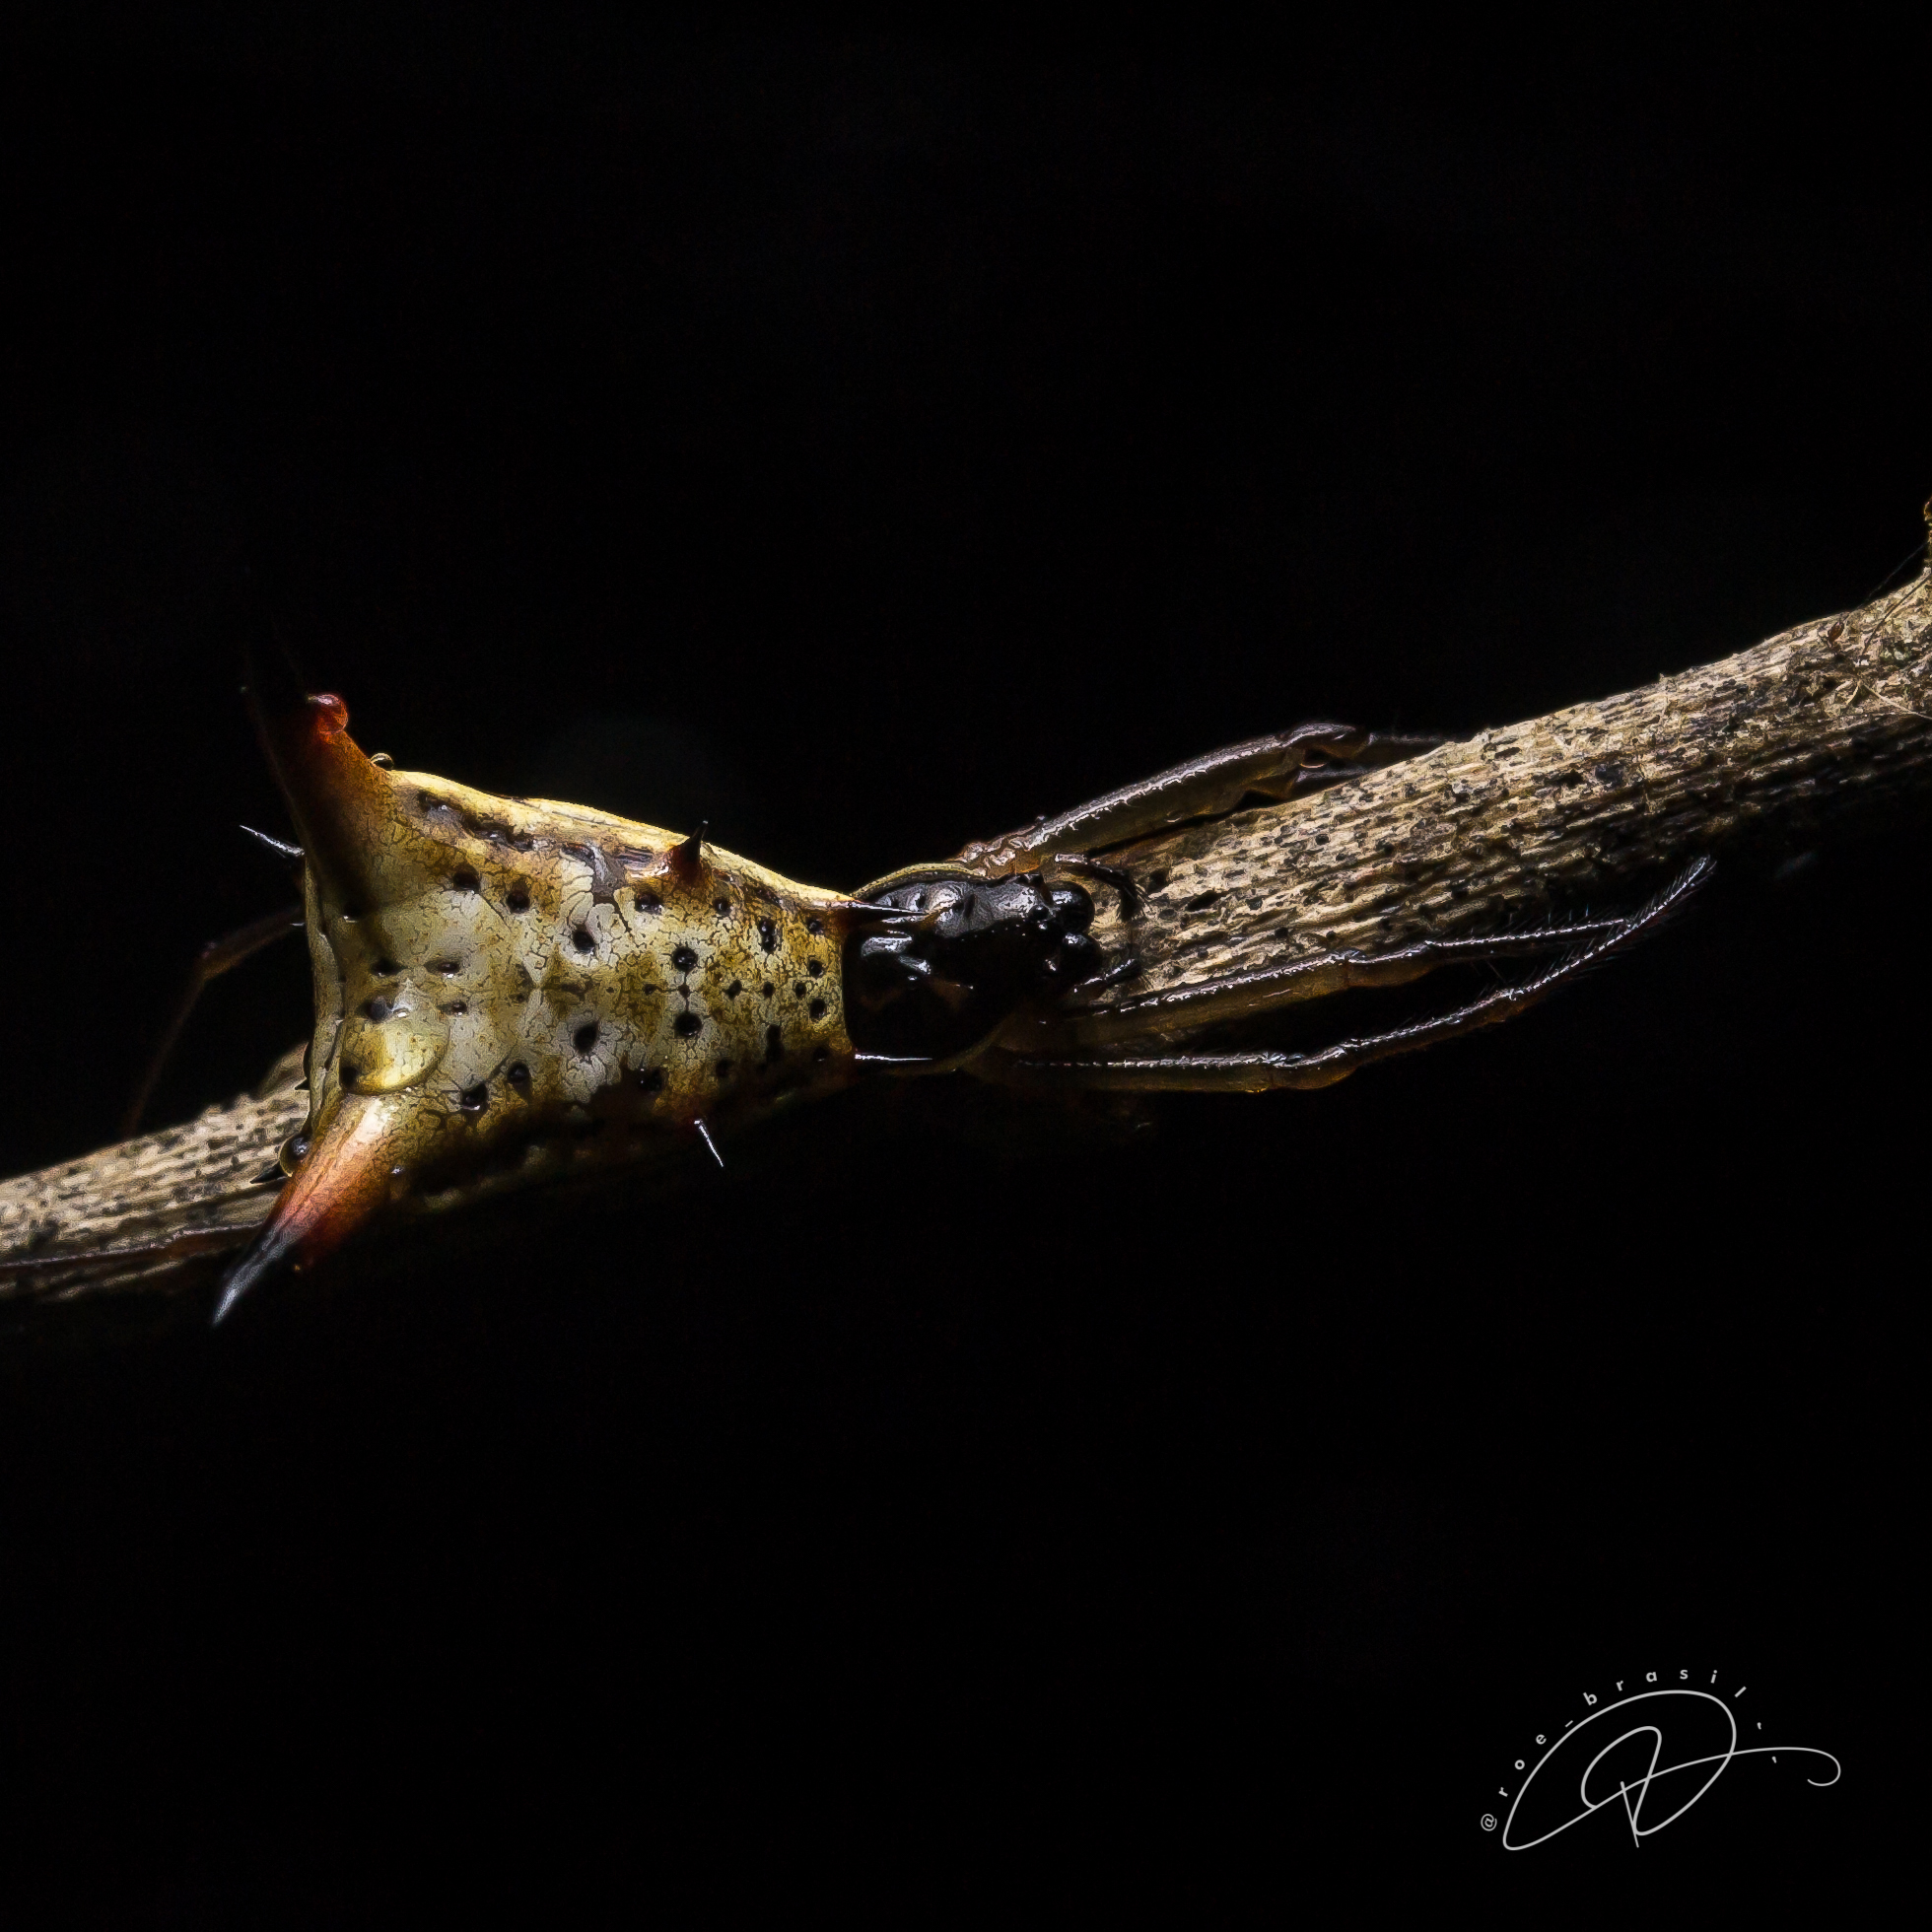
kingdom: Animalia
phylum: Arthropoda
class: Arachnida
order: Araneae
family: Araneidae
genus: Micrathena
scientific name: Micrathena sanctispiritus
